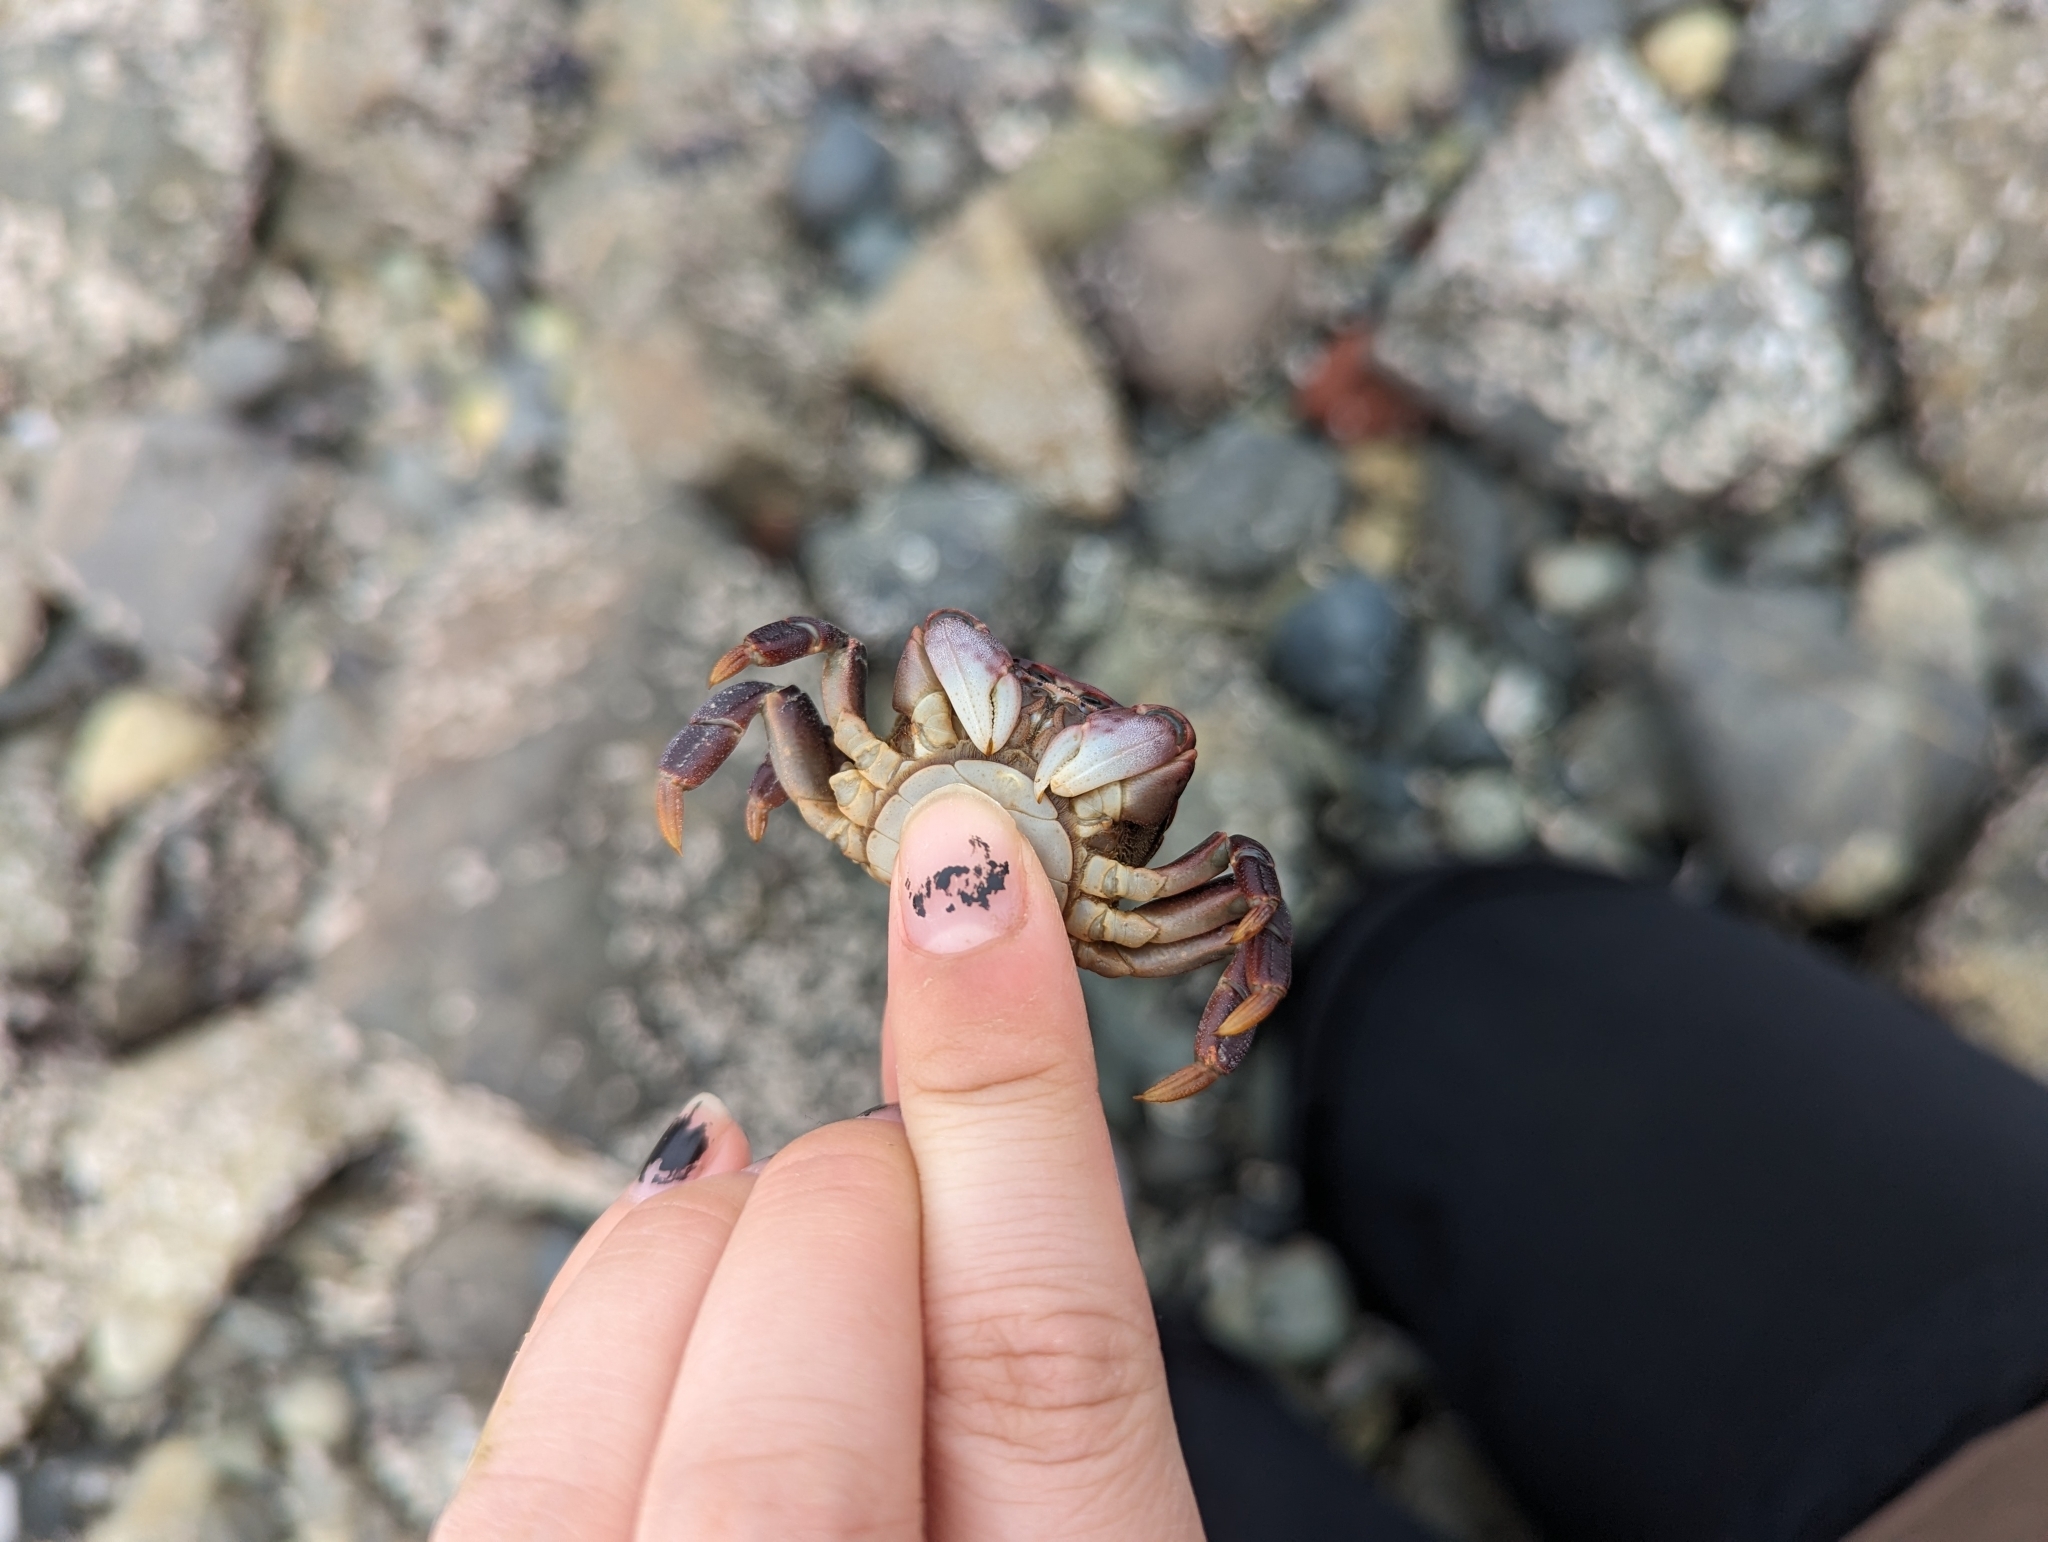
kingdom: Animalia
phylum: Arthropoda
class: Malacostraca
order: Decapoda
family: Varunidae
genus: Hemigrapsus
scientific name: Hemigrapsus nudus
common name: Purple shore crab
